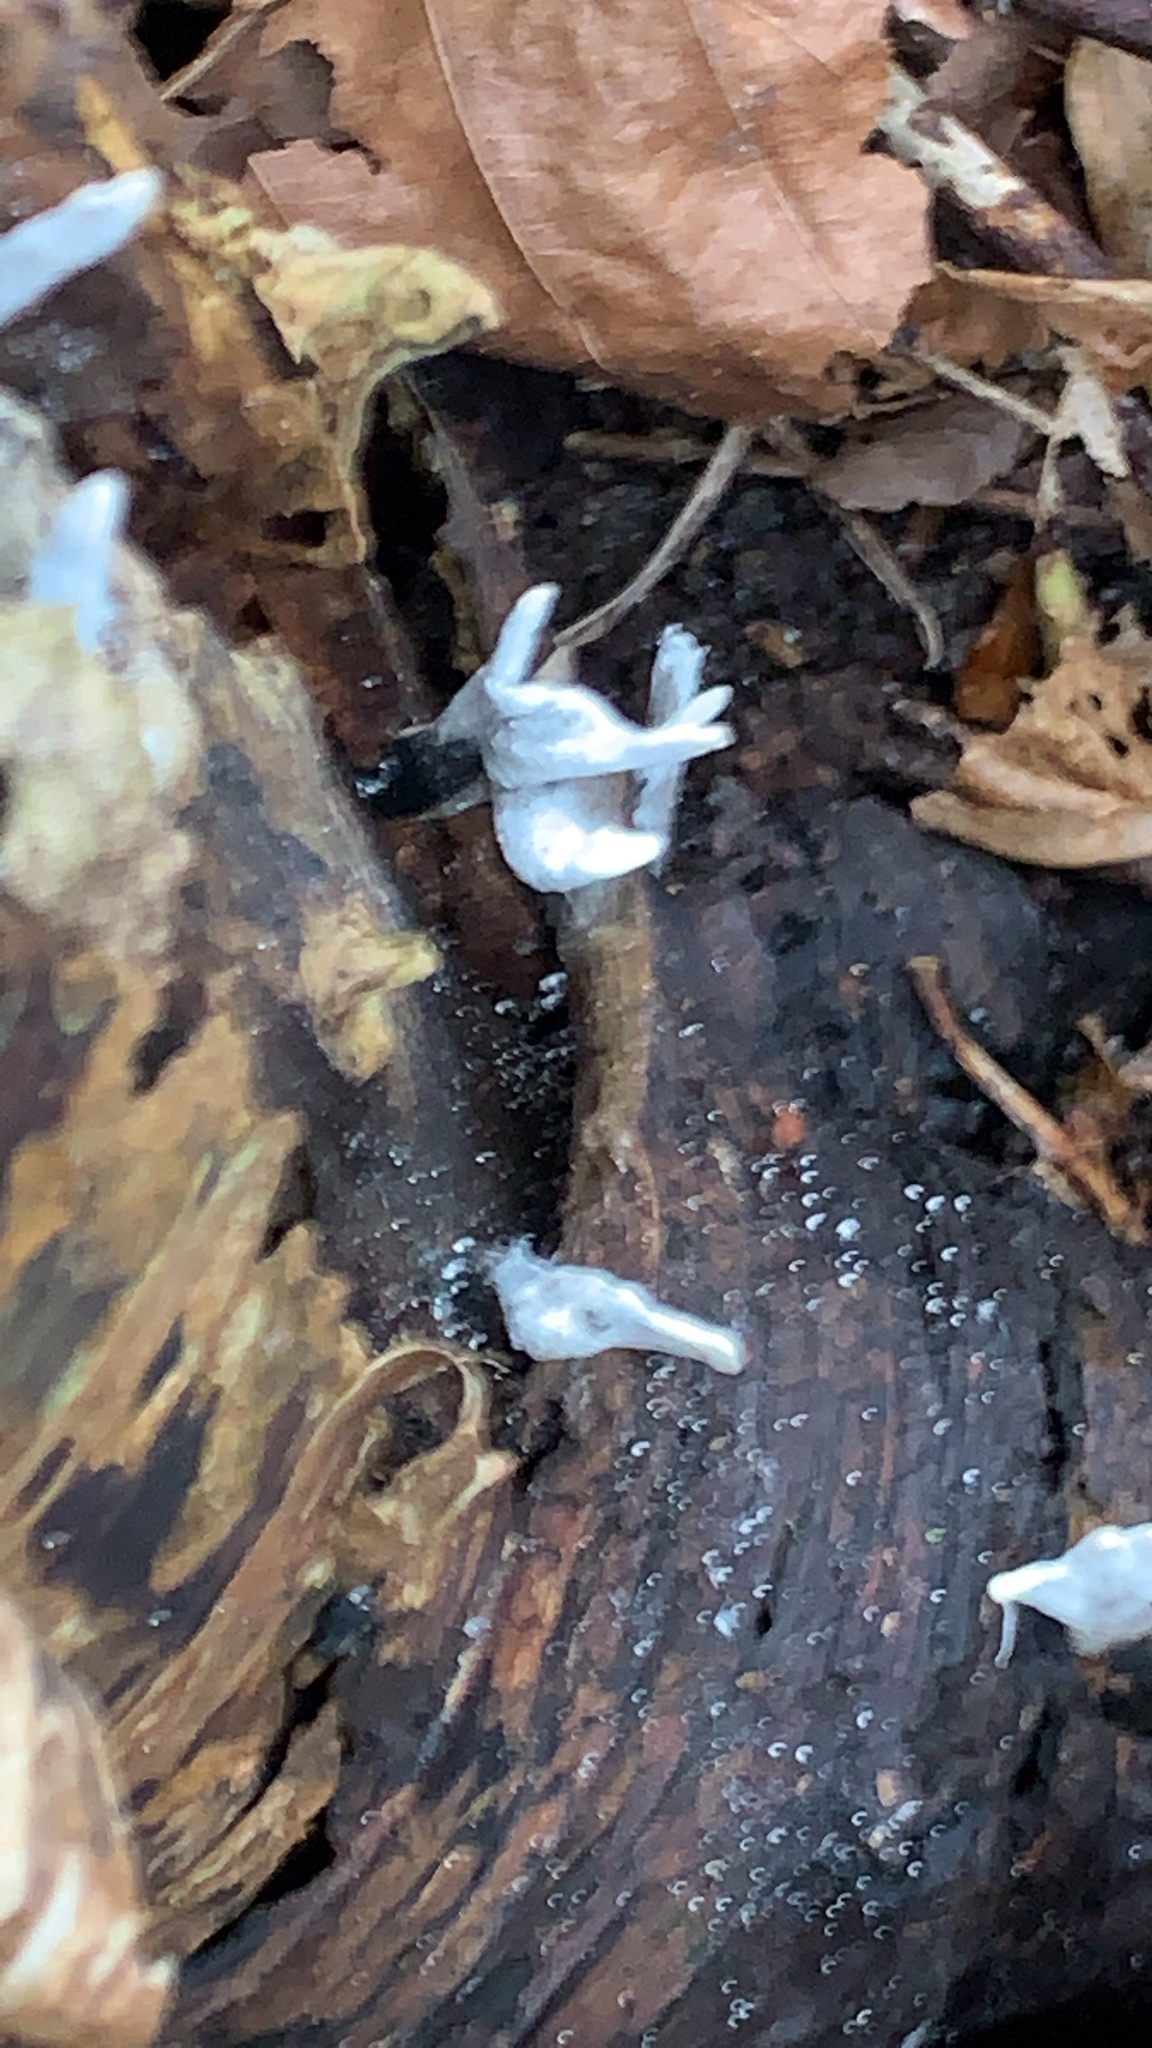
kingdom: Fungi
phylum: Ascomycota
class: Sordariomycetes
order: Xylariales
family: Xylariaceae
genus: Xylaria
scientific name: Xylaria hypoxylon
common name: Candle-snuff fungus
